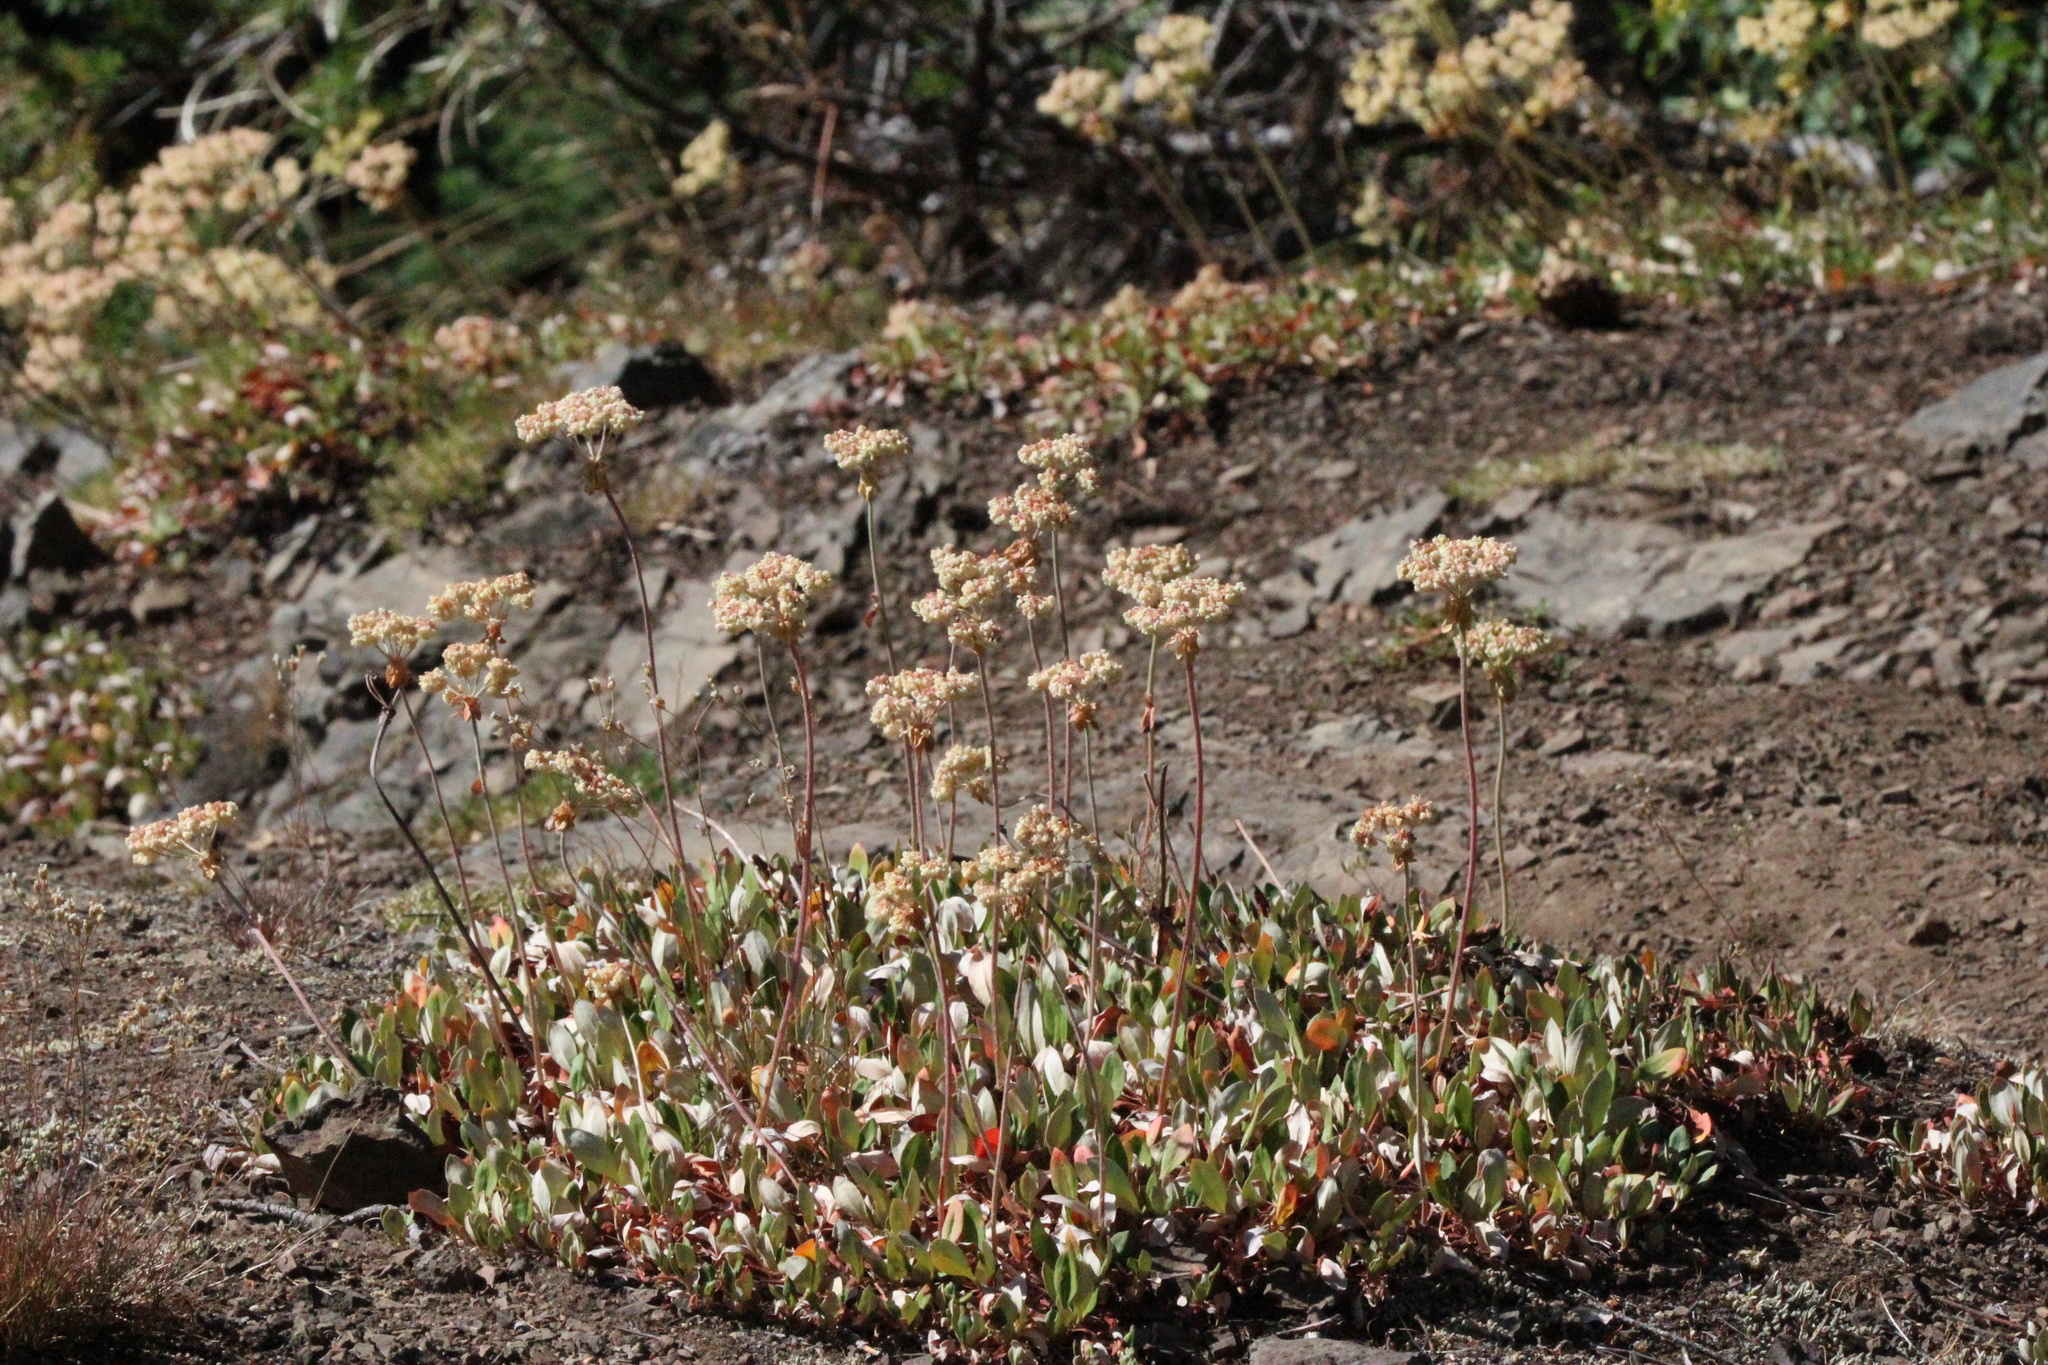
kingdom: Plantae
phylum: Tracheophyta
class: Magnoliopsida
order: Caryophyllales
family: Polygonaceae
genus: Eriogonum
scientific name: Eriogonum umbellatum
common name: Sulfur-buckwheat
